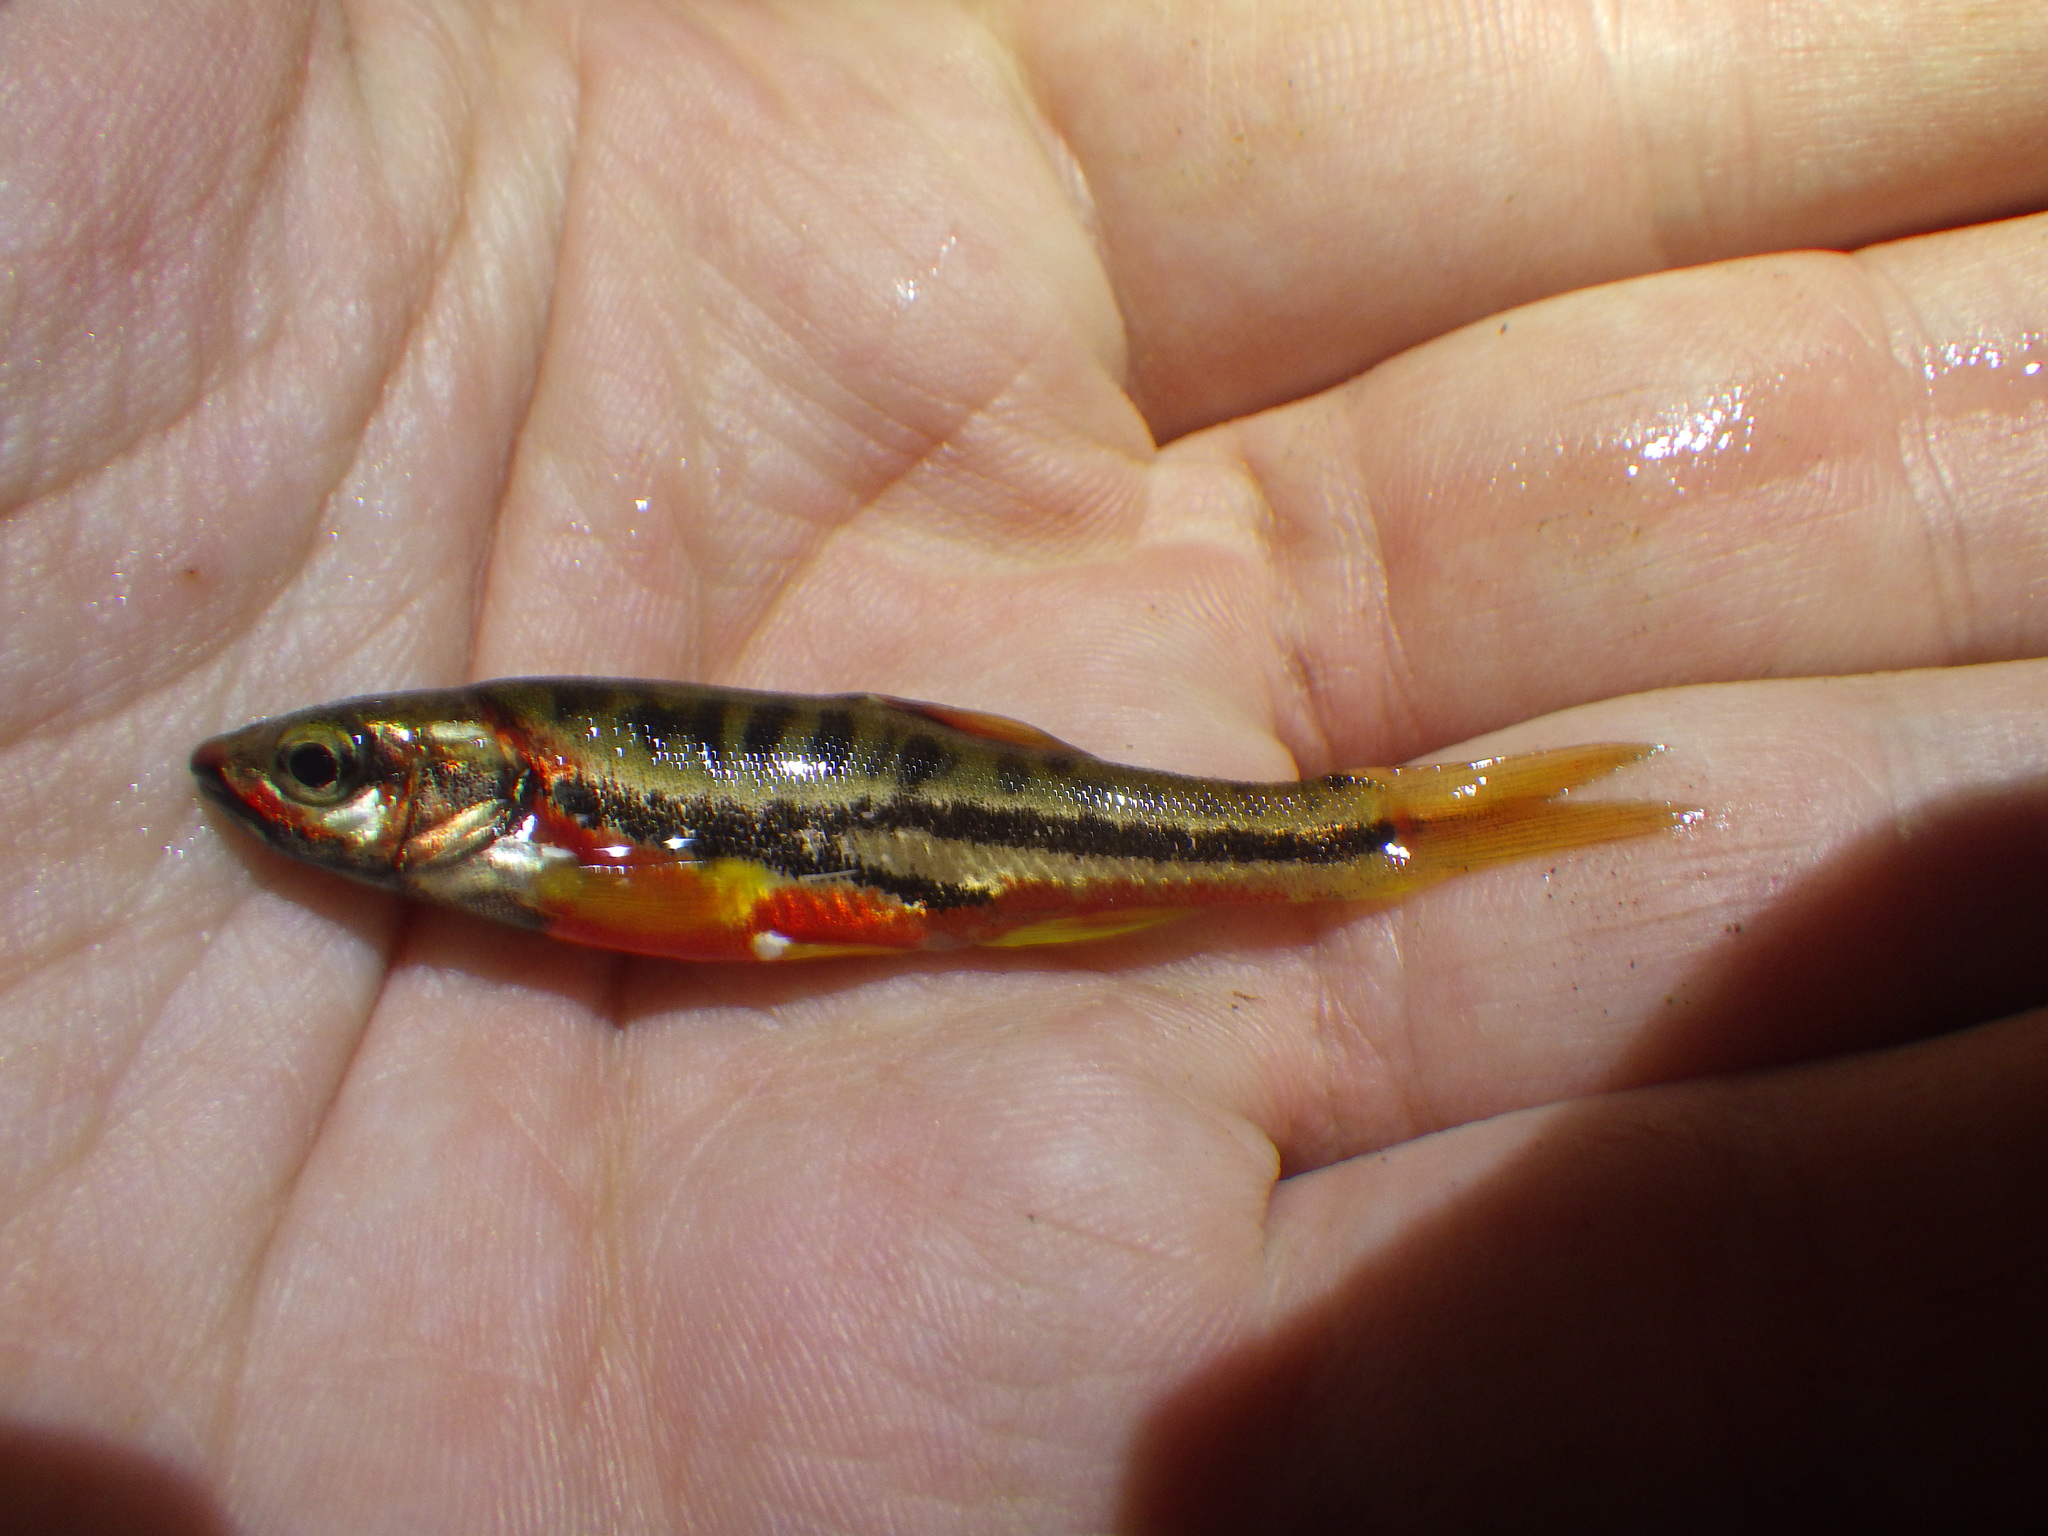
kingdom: Animalia
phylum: Chordata
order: Cypriniformes
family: Cyprinidae
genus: Chrosomus
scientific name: Chrosomus oreas
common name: Mountain redbelly dace
